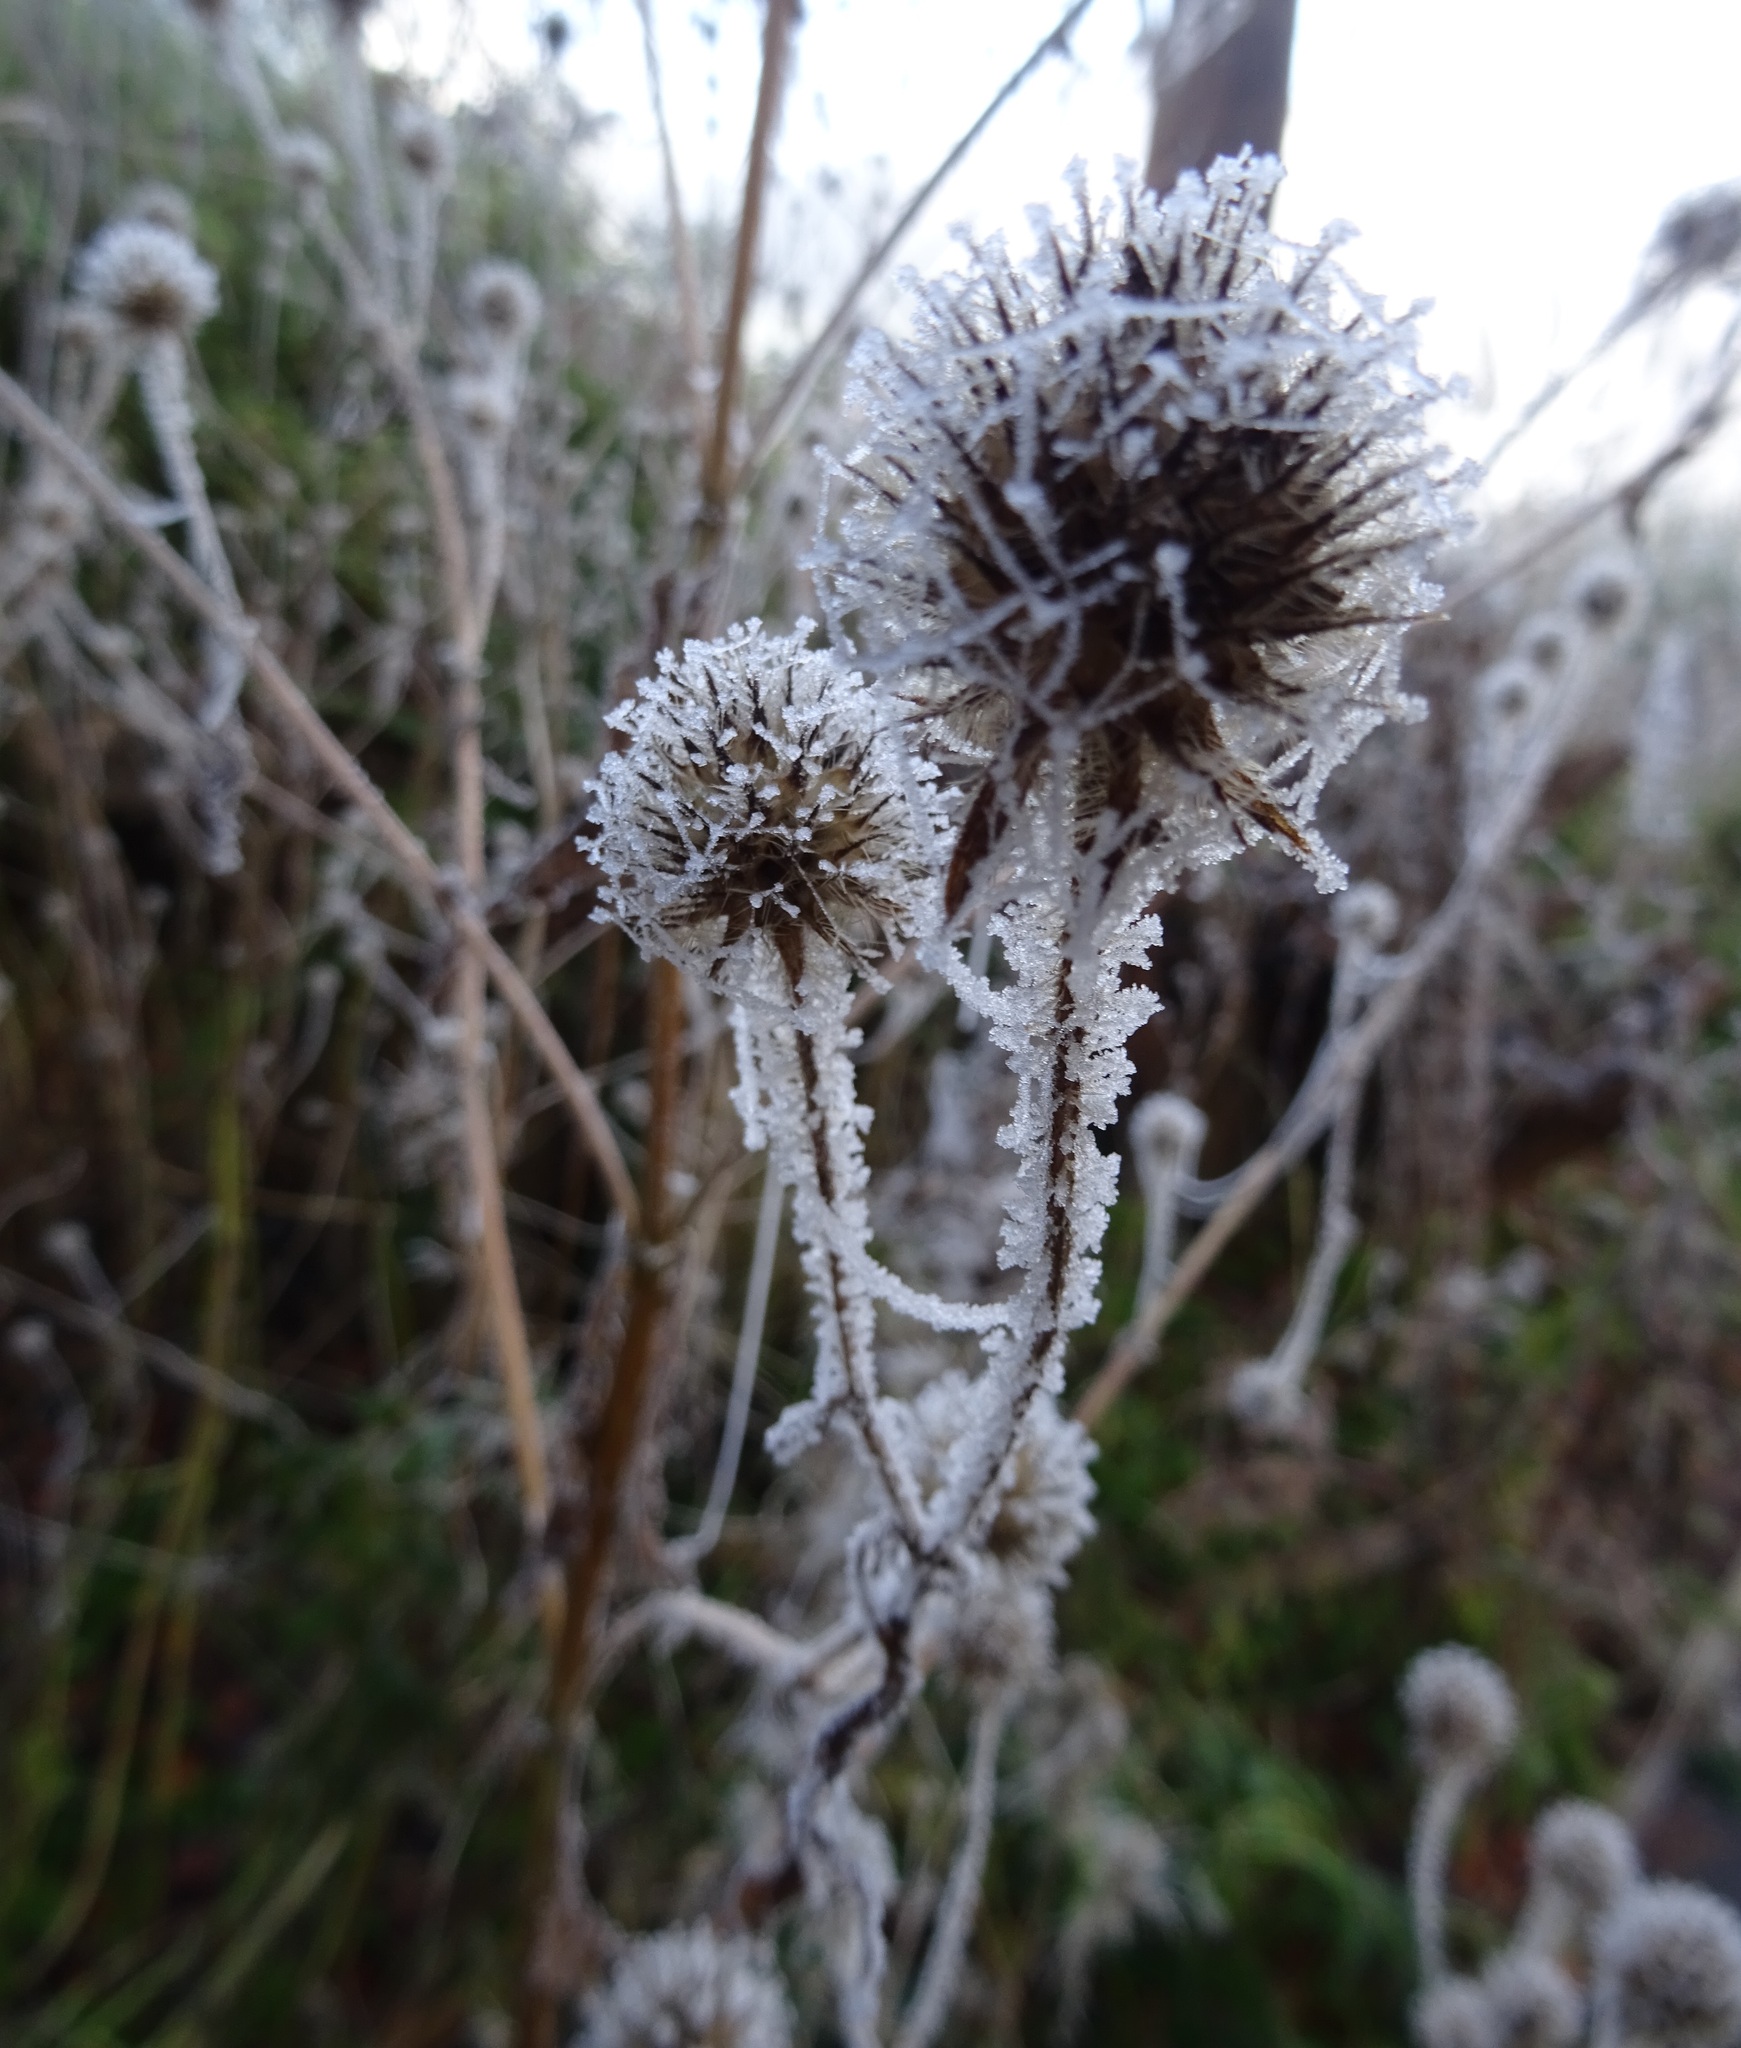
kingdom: Plantae
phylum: Tracheophyta
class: Magnoliopsida
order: Dipsacales
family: Caprifoliaceae
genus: Dipsacus
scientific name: Dipsacus pilosus
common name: Small teasel
